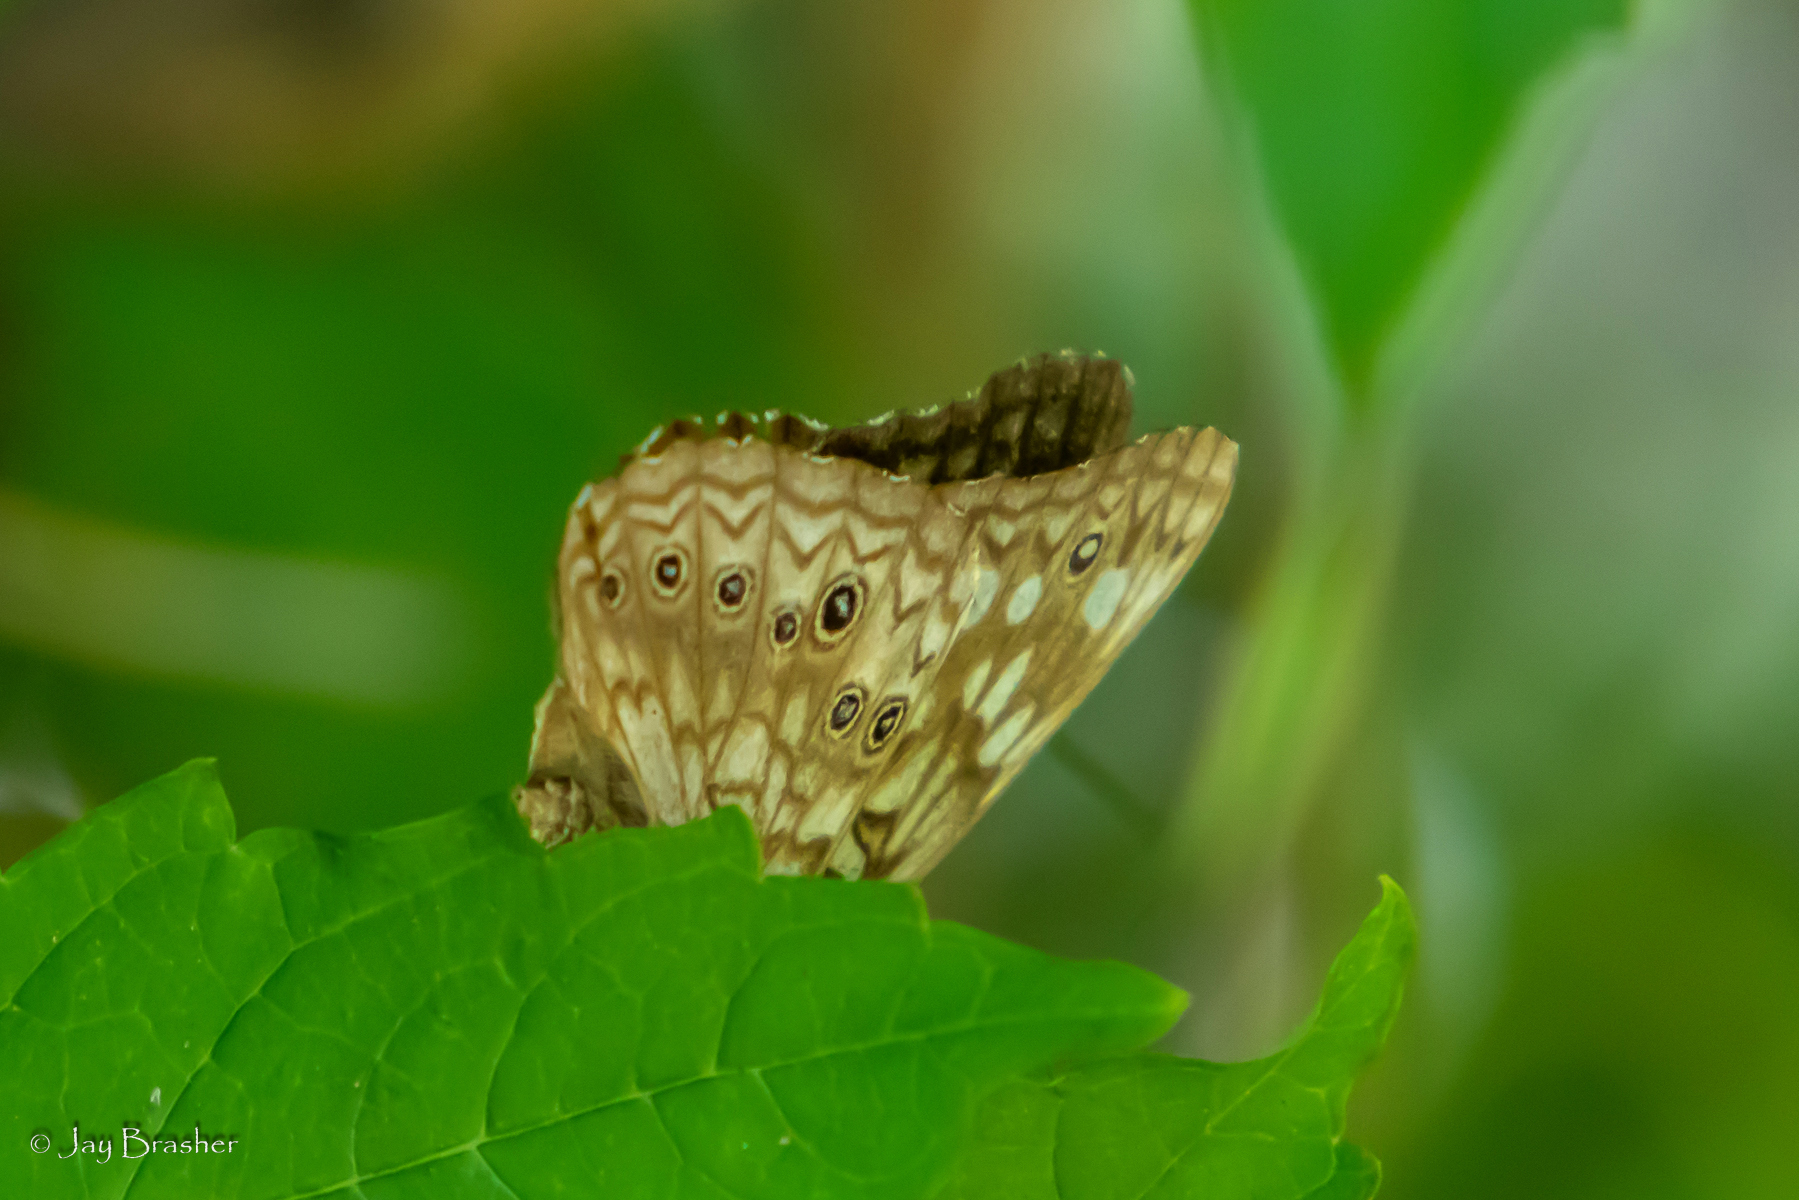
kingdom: Animalia
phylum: Arthropoda
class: Insecta
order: Lepidoptera
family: Nymphalidae
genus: Asterocampa
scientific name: Asterocampa celtis
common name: Hackberry emperor
